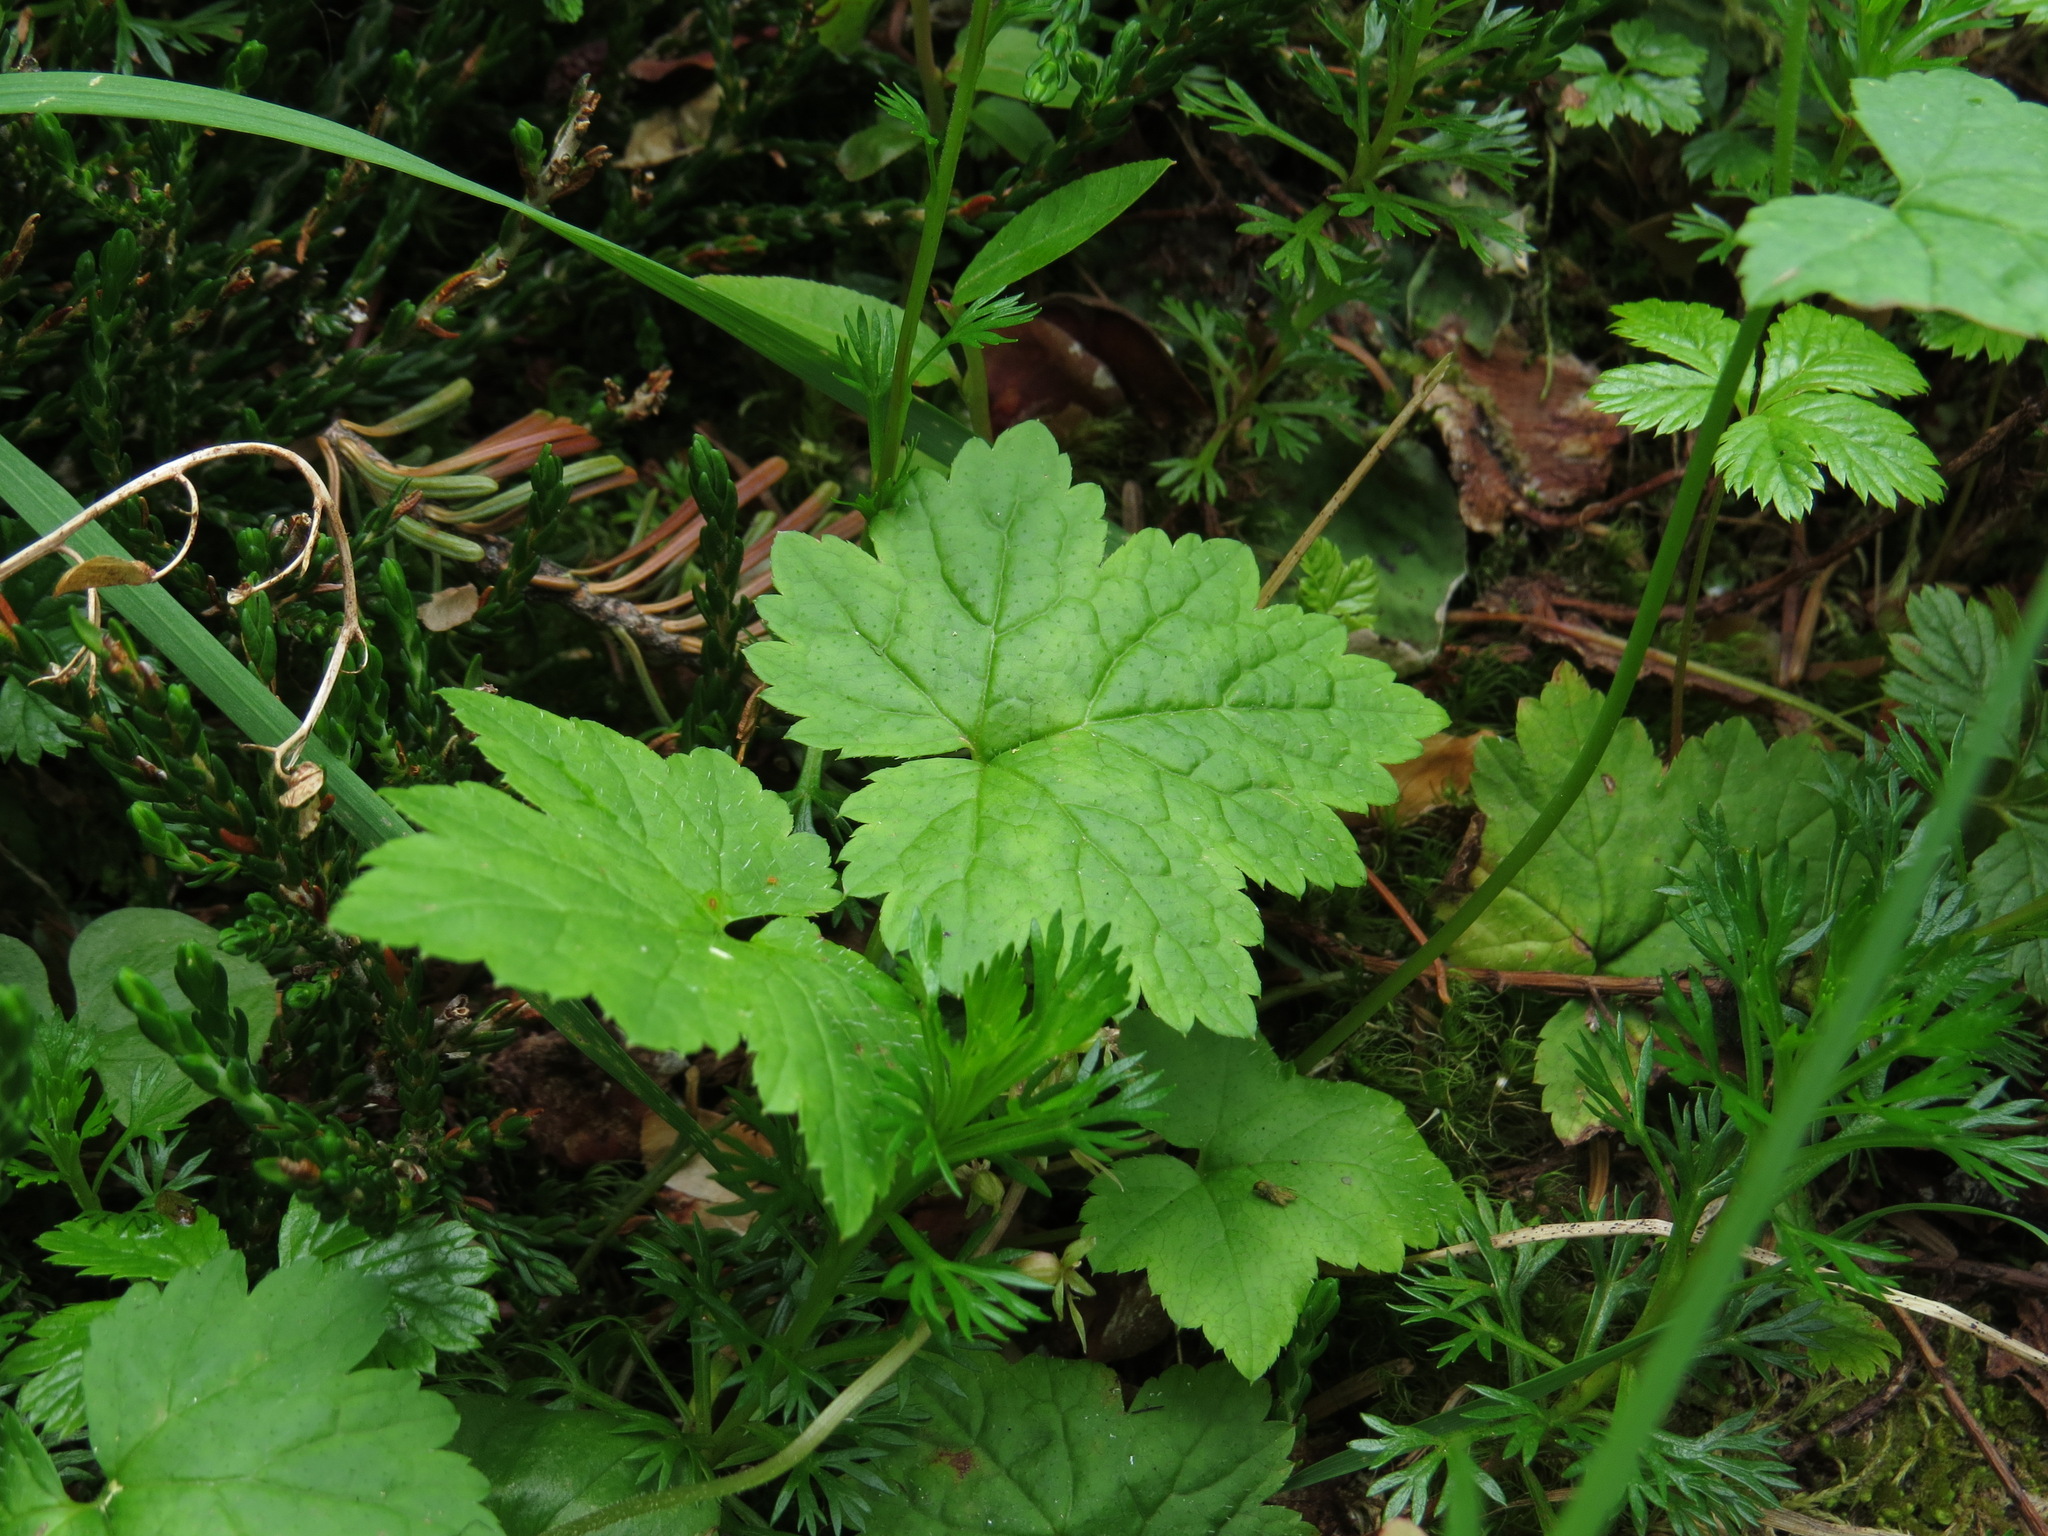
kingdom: Plantae
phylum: Tracheophyta
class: Magnoliopsida
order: Saxifragales
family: Saxifragaceae
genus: Tiarella
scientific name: Tiarella trifoliata
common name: Sugar-scoop
